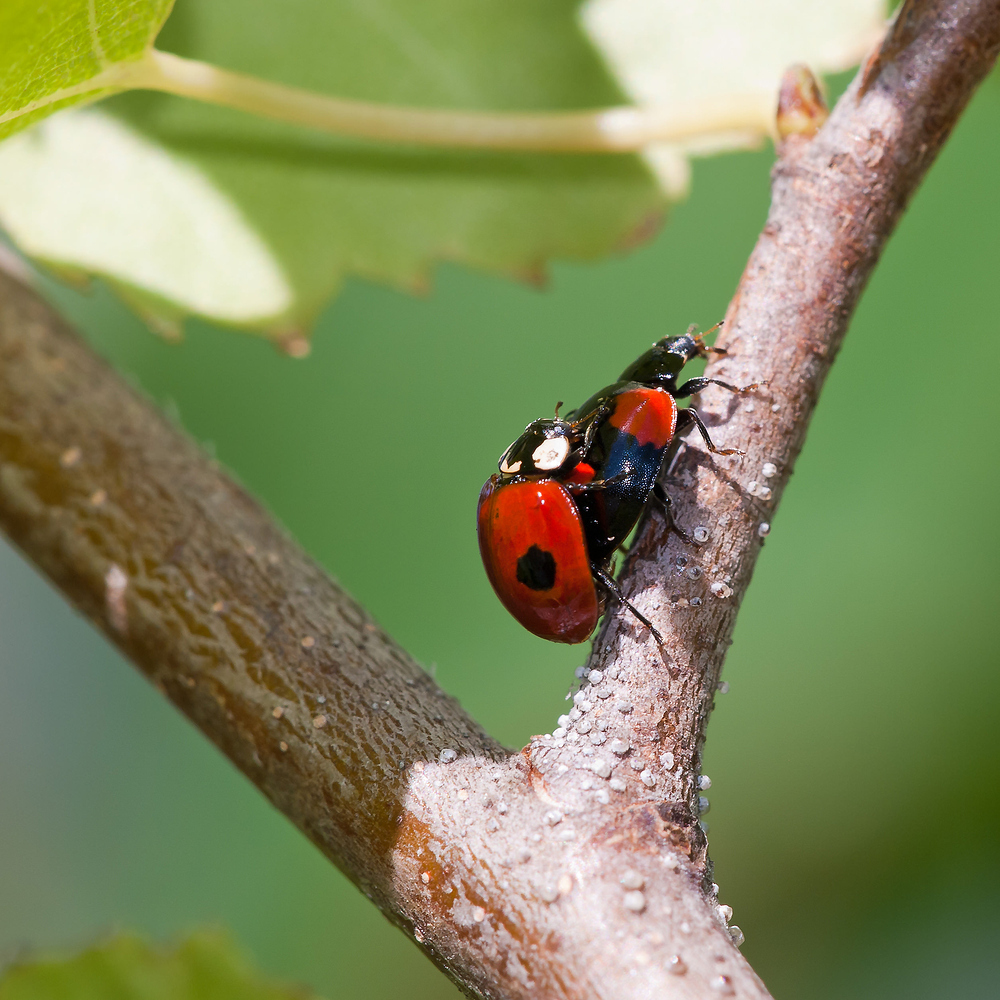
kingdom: Animalia
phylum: Arthropoda
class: Insecta
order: Coleoptera
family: Coccinellidae
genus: Adalia
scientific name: Adalia bipunctata
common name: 2-spot ladybird
